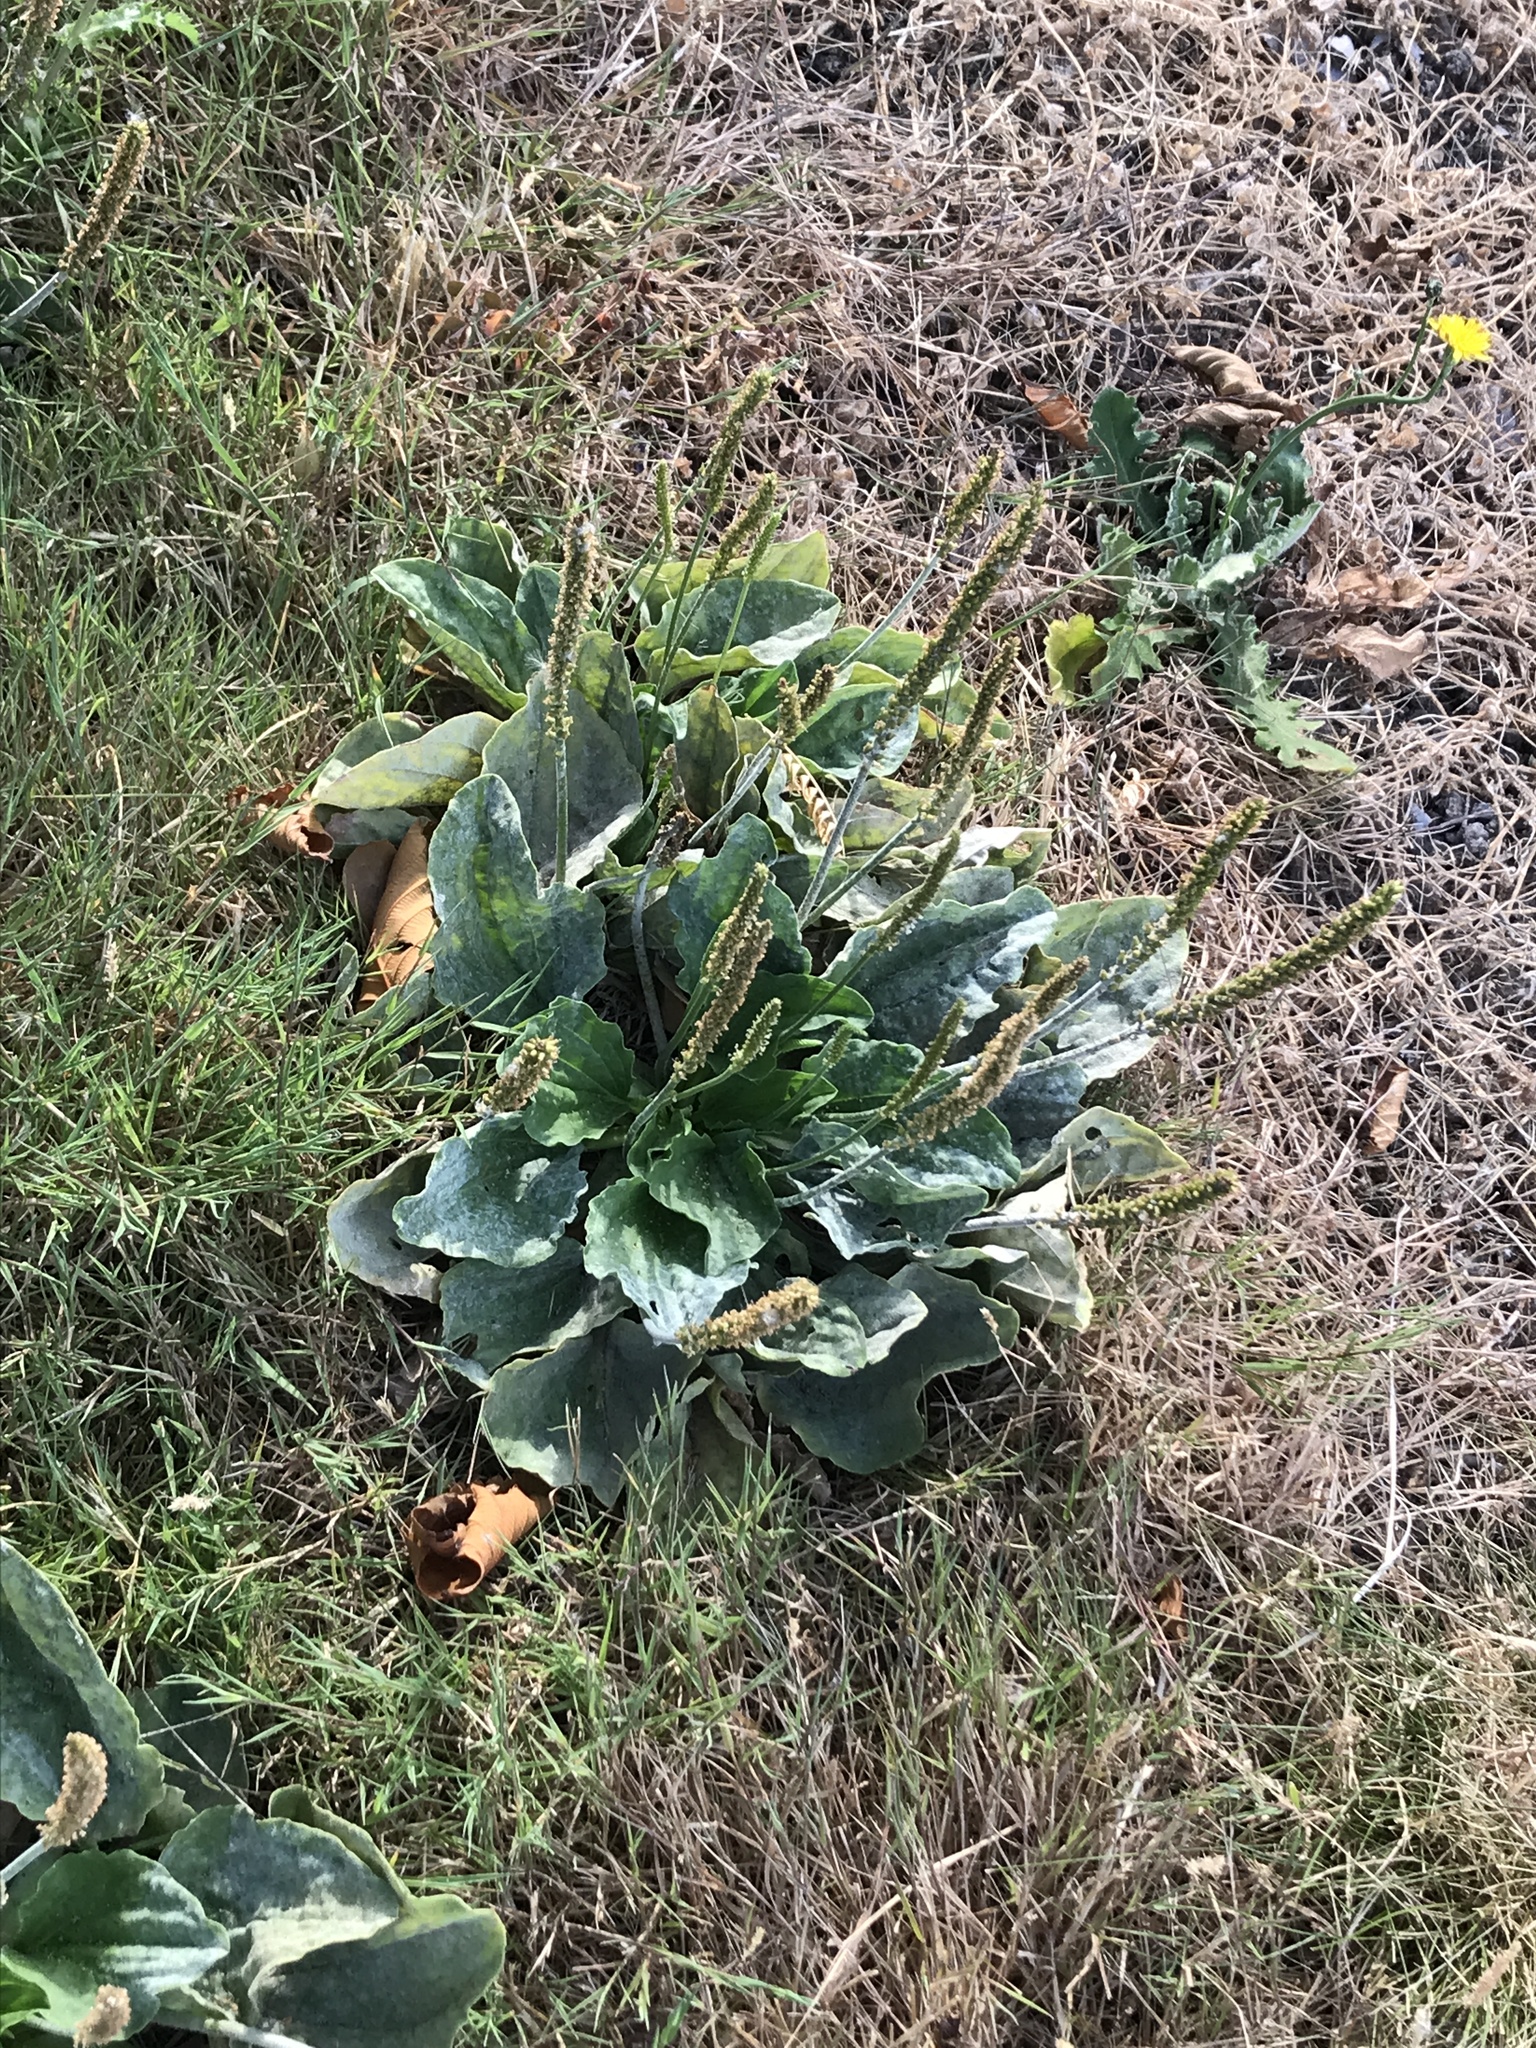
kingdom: Plantae
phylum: Tracheophyta
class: Magnoliopsida
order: Lamiales
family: Plantaginaceae
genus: Plantago
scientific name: Plantago major
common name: Common plantain
